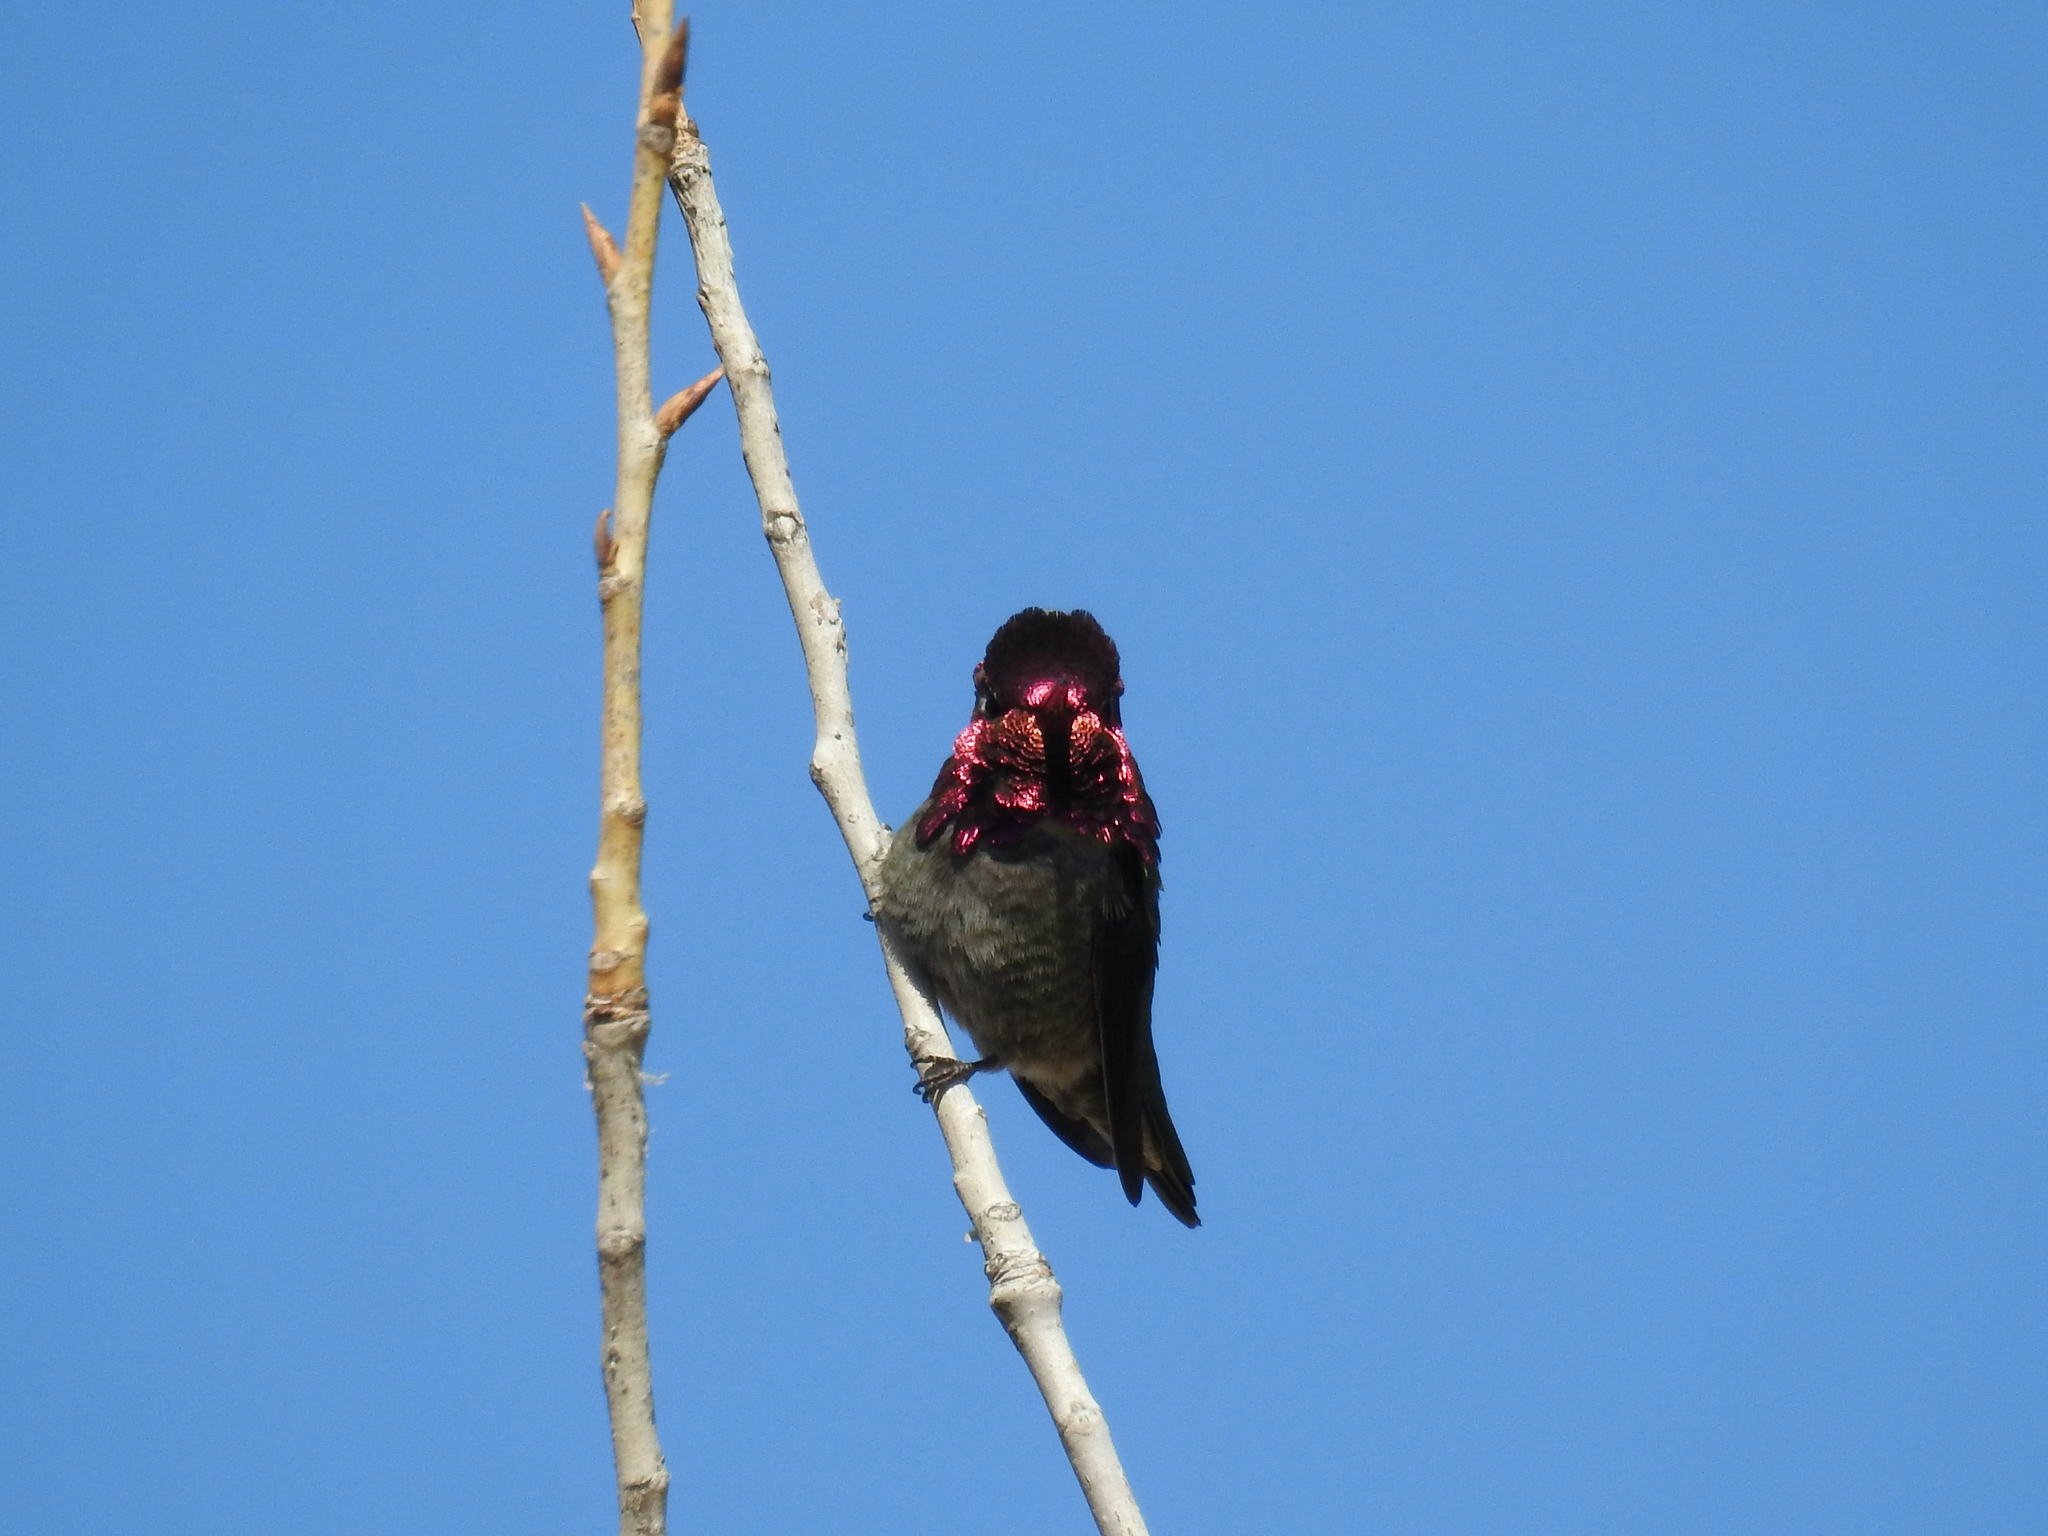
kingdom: Animalia
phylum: Chordata
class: Aves
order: Apodiformes
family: Trochilidae
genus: Calypte
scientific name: Calypte anna
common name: Anna's hummingbird
